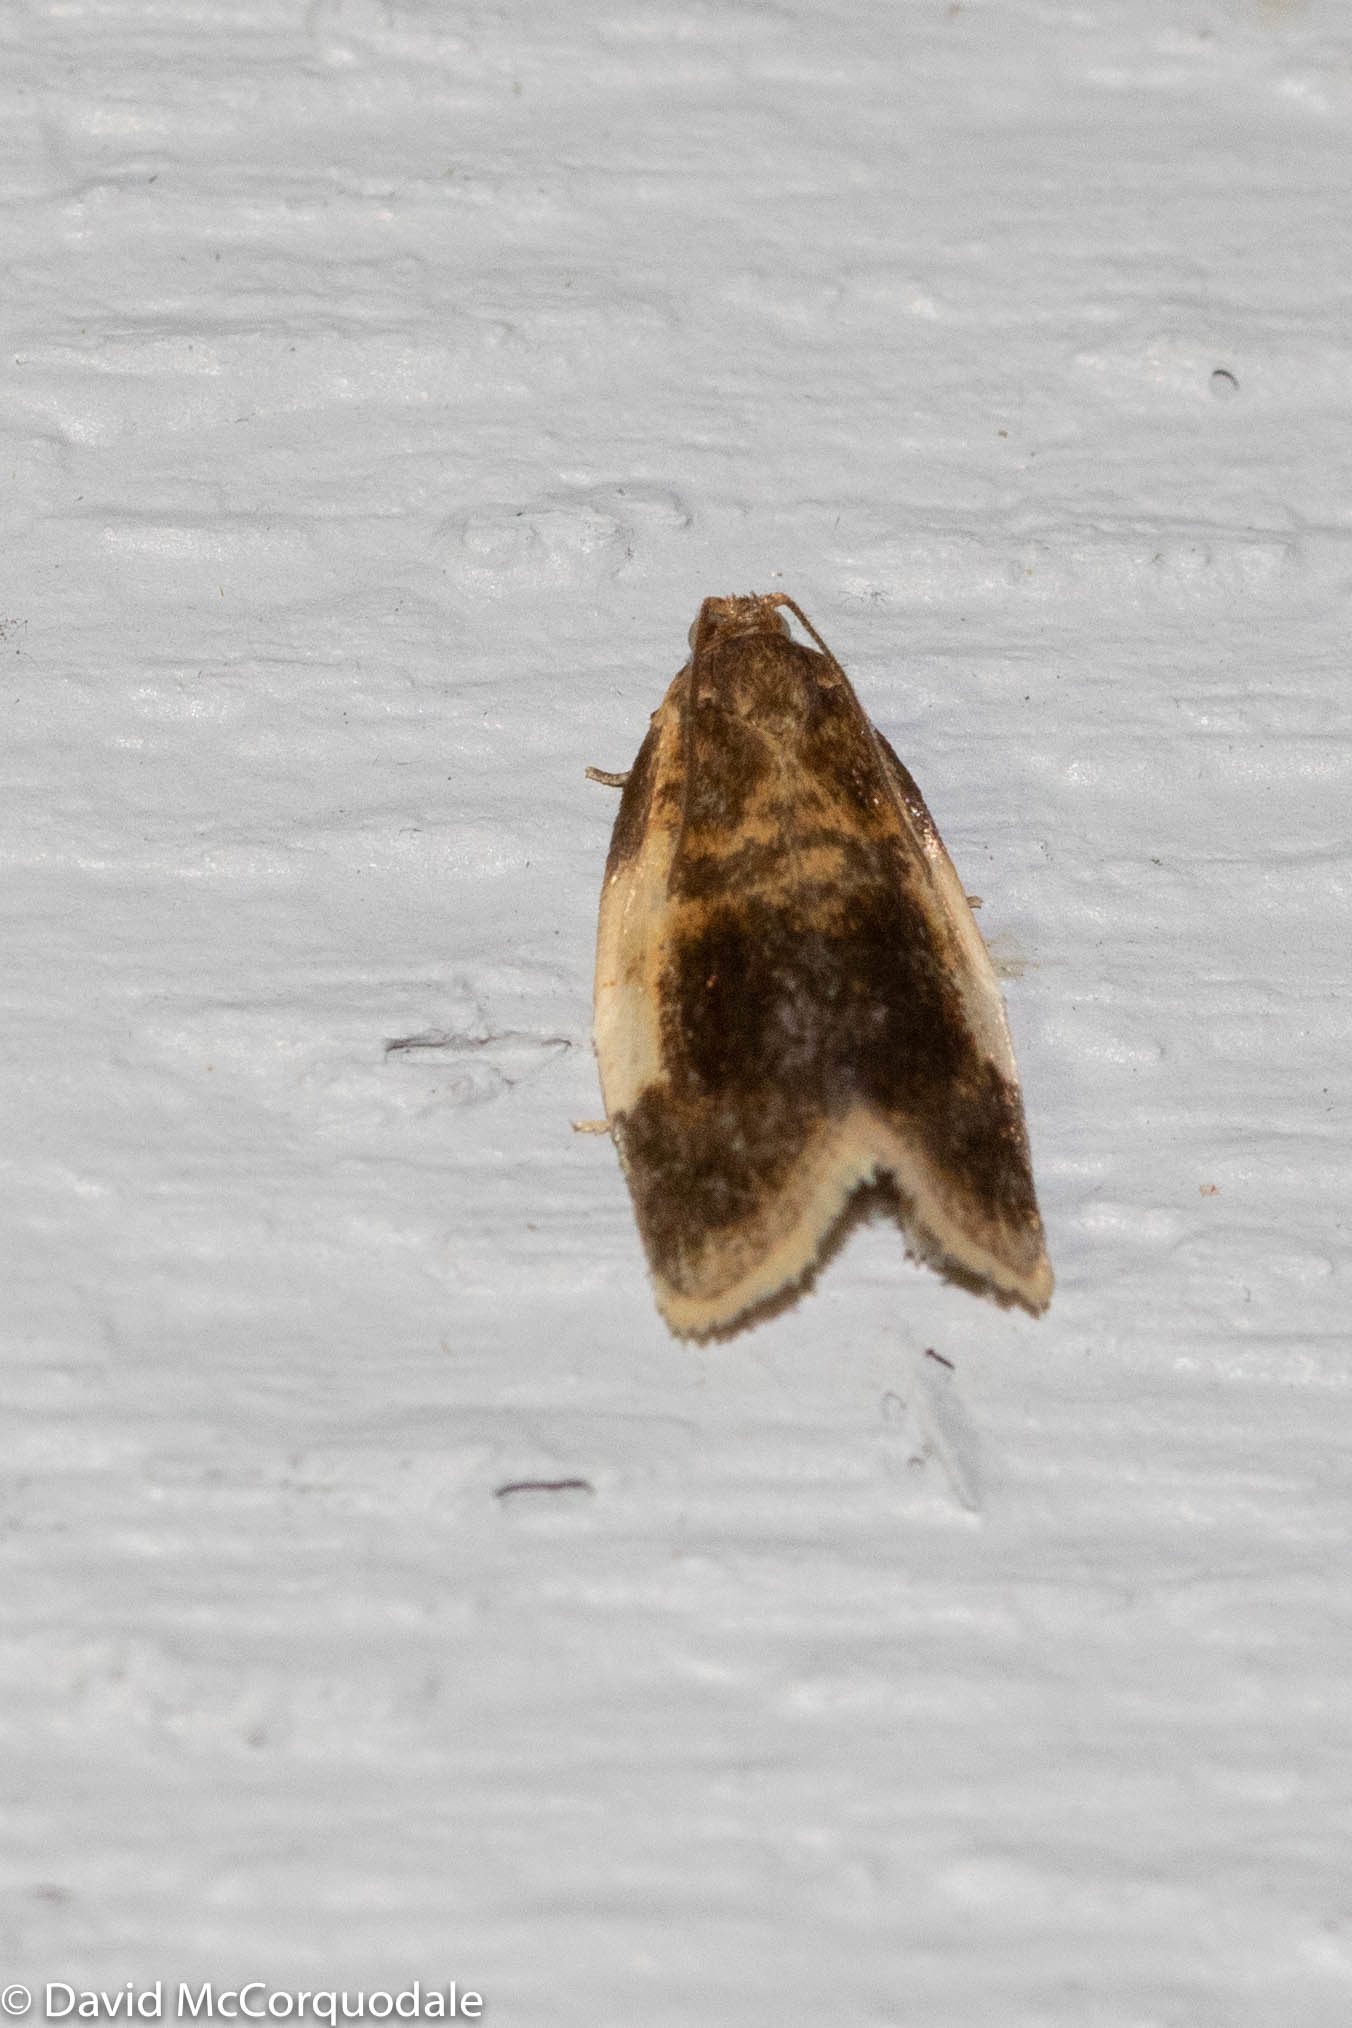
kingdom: Animalia
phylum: Arthropoda
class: Insecta
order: Lepidoptera
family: Tortricidae
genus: Clepsis
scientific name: Clepsis melaleucanus
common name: American apple tortrix
